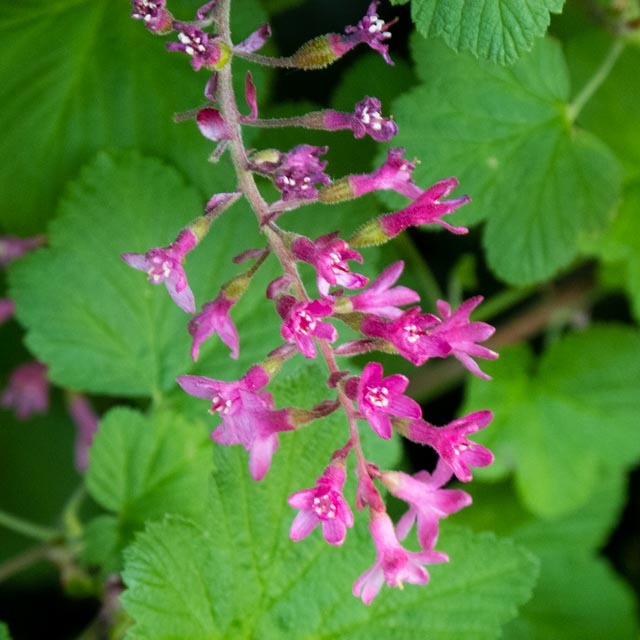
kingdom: Plantae
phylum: Tracheophyta
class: Magnoliopsida
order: Saxifragales
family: Grossulariaceae
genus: Ribes
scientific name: Ribes sanguineum
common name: Flowering currant
